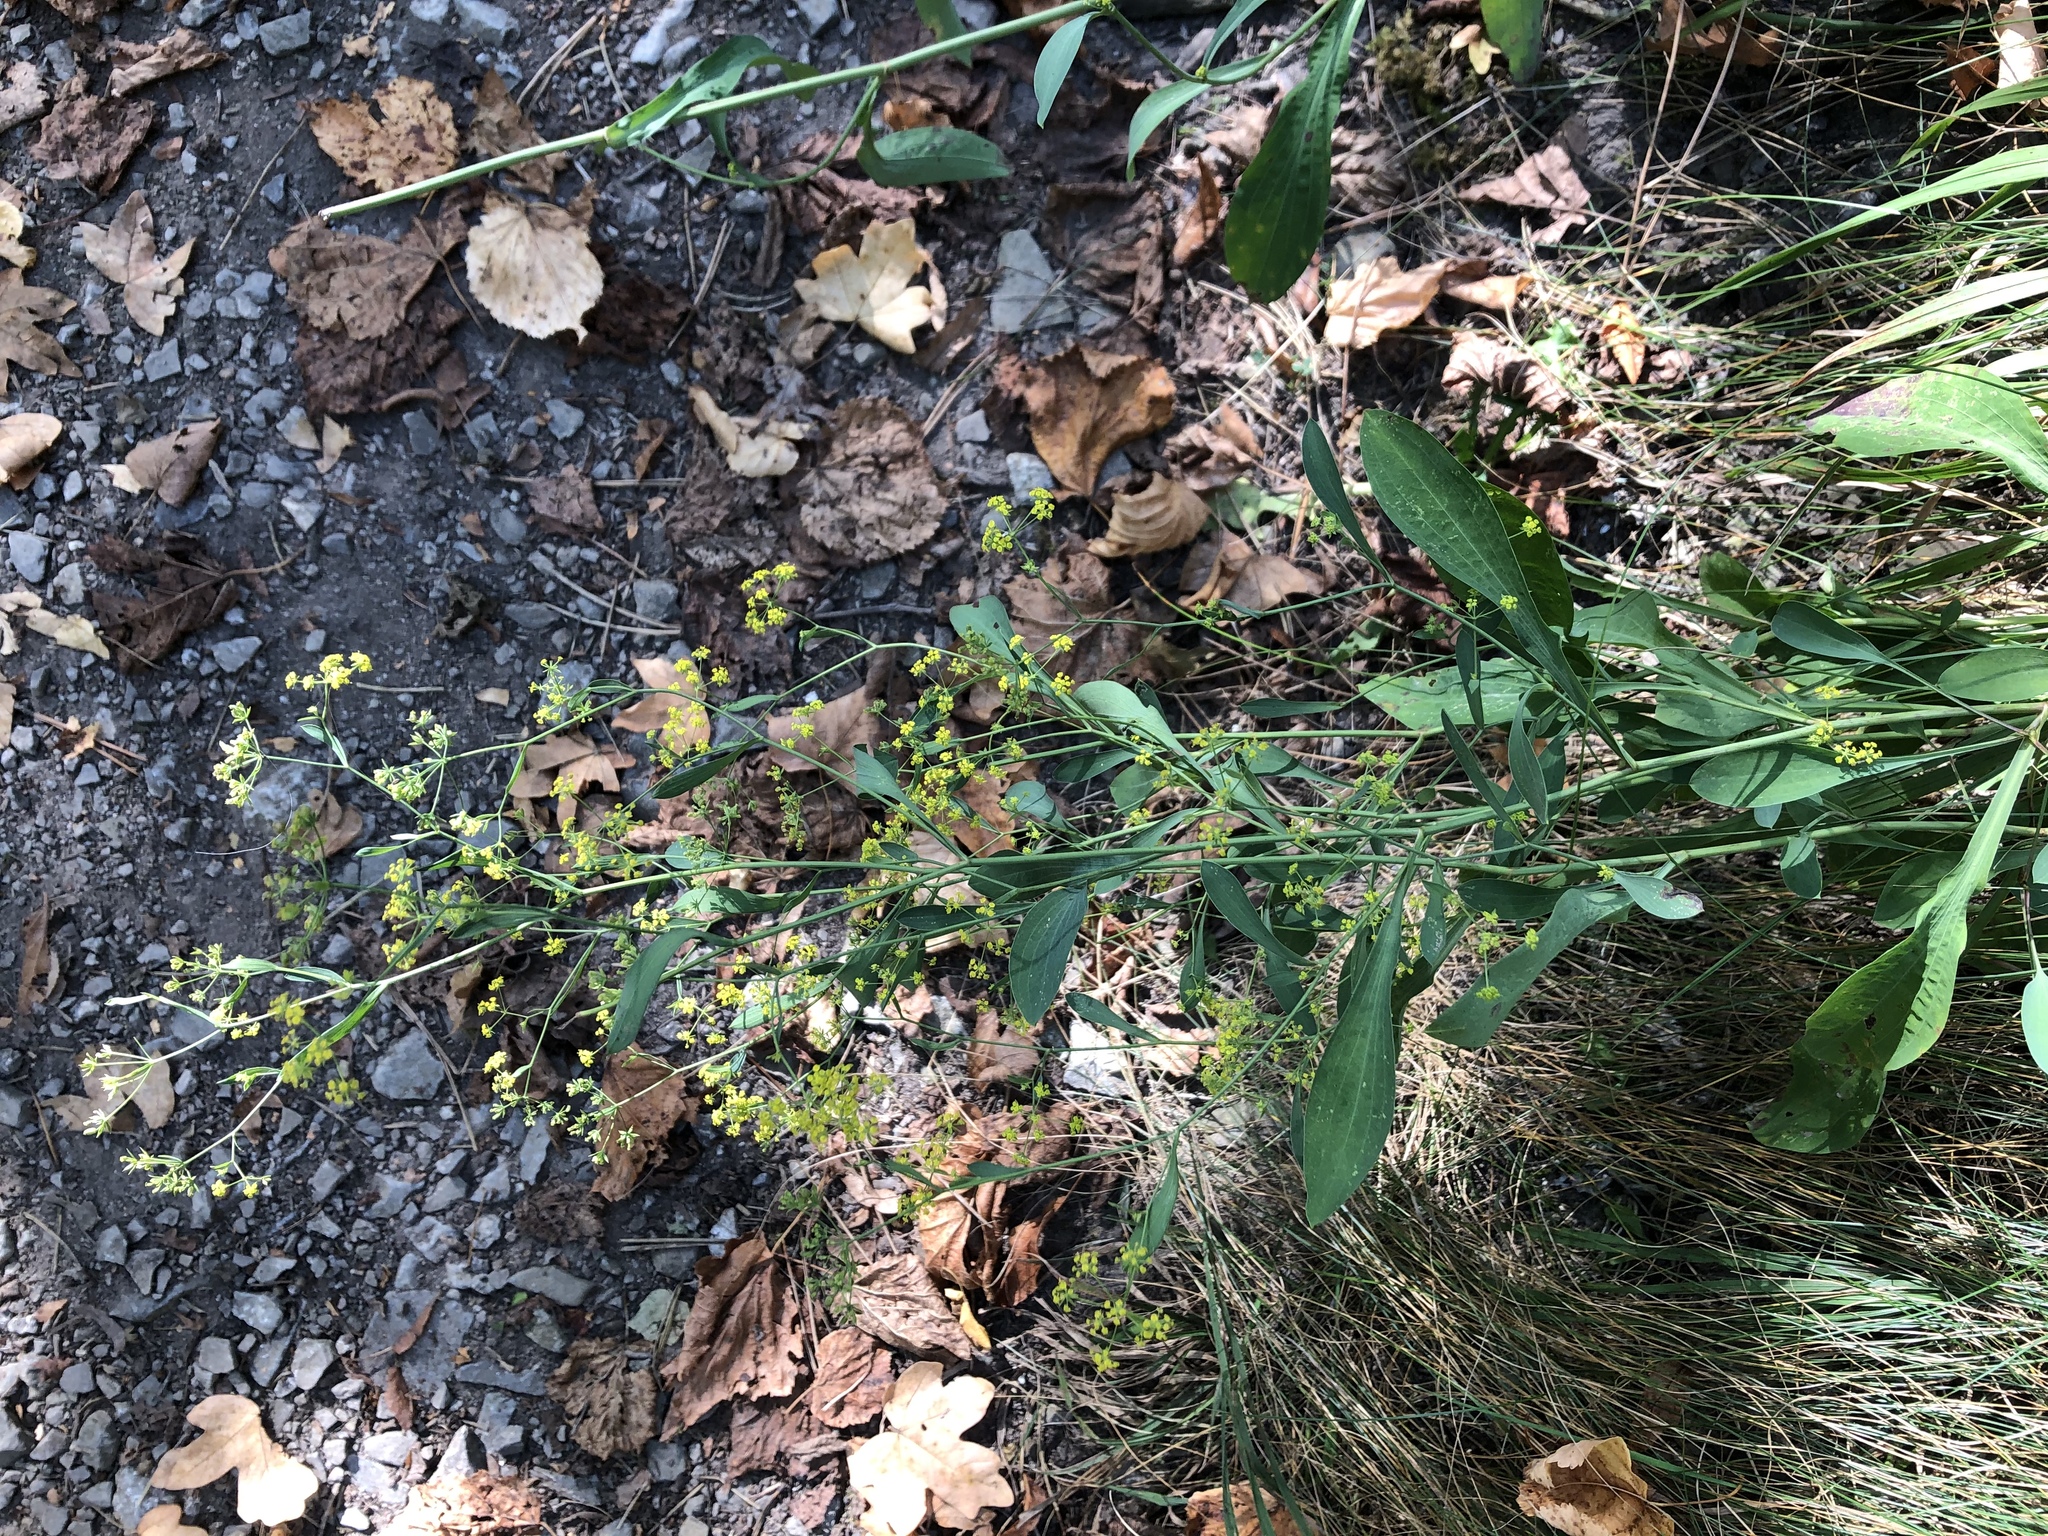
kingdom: Plantae
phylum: Tracheophyta
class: Magnoliopsida
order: Apiales
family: Apiaceae
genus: Bupleurum
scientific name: Bupleurum falcatum
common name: Sickle-leaved hare's-ear
